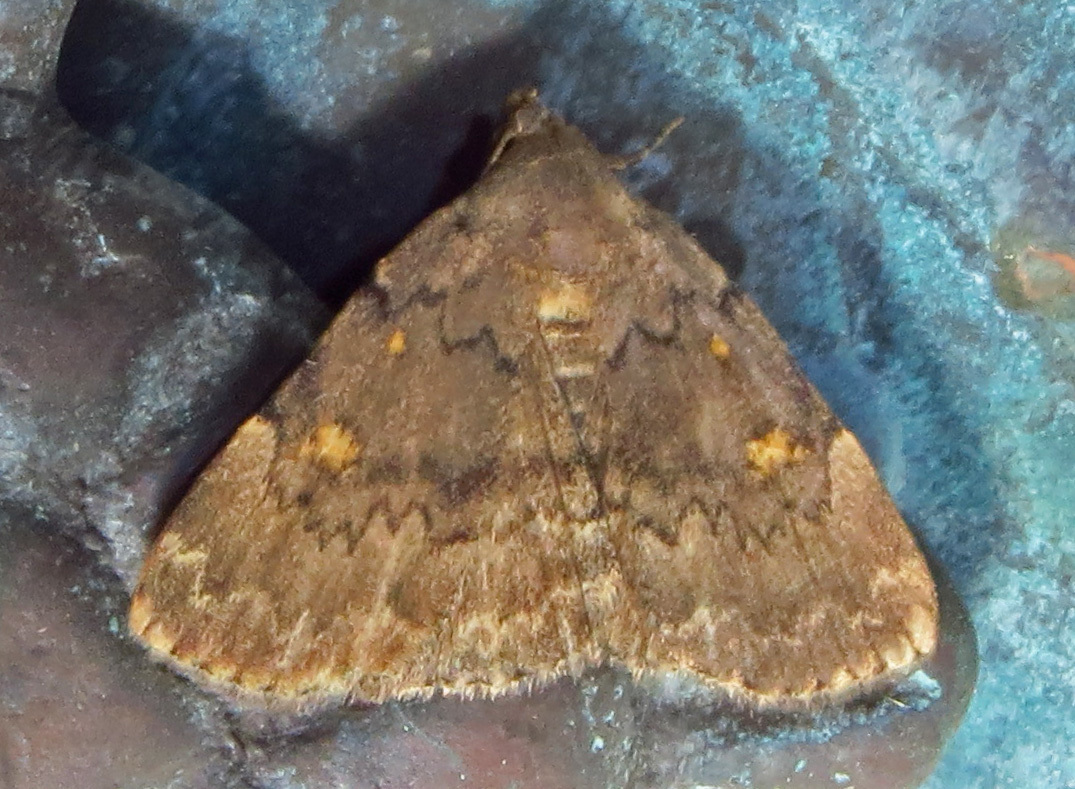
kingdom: Animalia
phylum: Arthropoda
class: Insecta
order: Lepidoptera
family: Erebidae
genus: Idia
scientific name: Idia aemula
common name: Common idia moth
